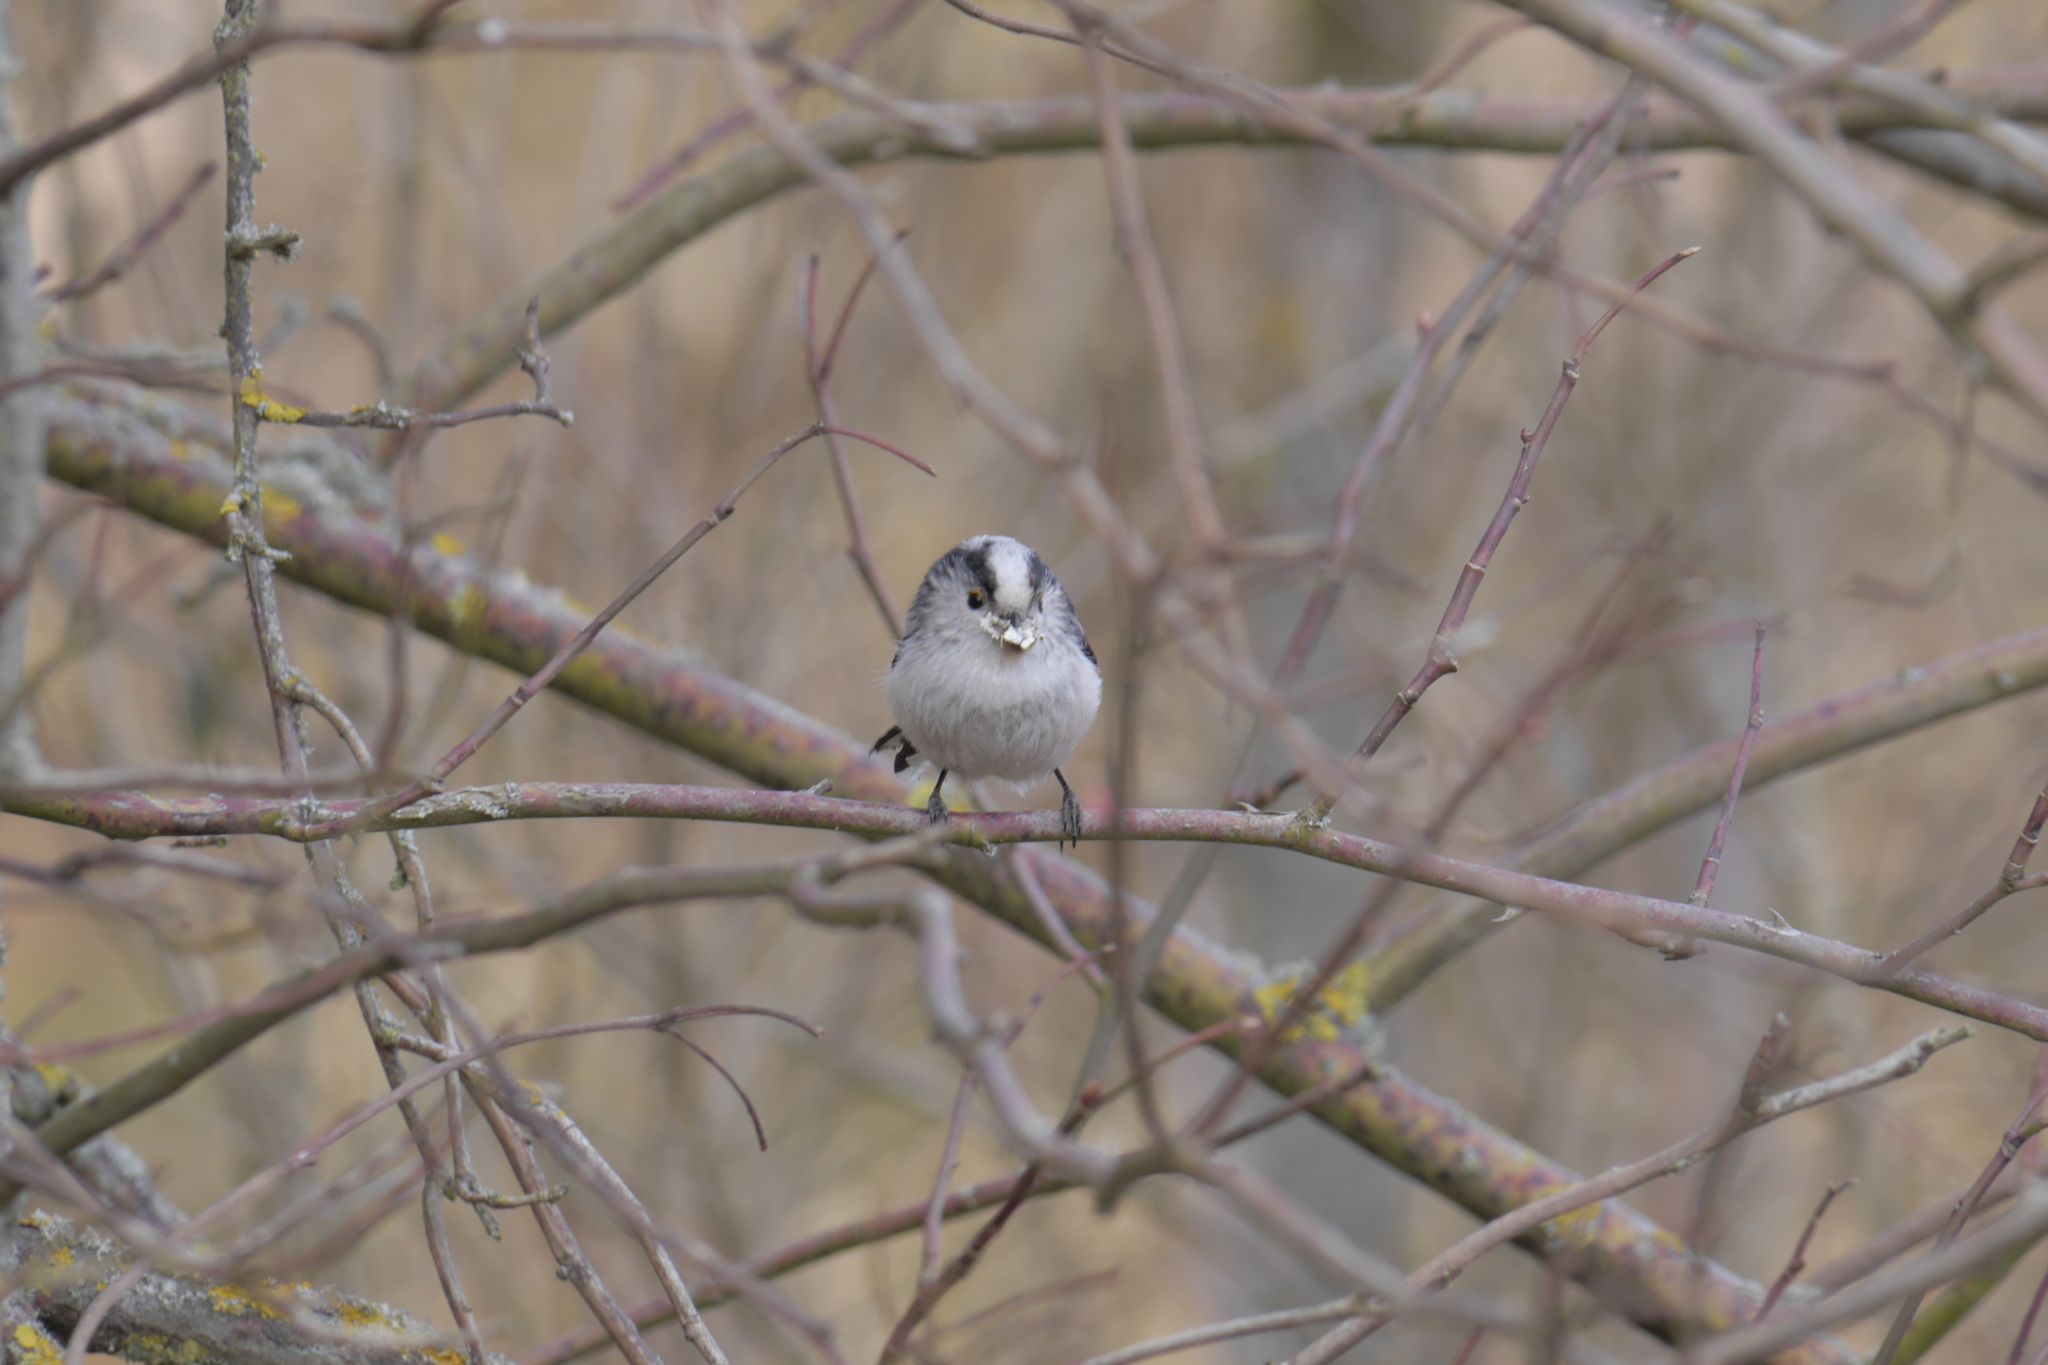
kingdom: Animalia
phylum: Chordata
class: Aves
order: Passeriformes
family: Aegithalidae
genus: Aegithalos
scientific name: Aegithalos caudatus
